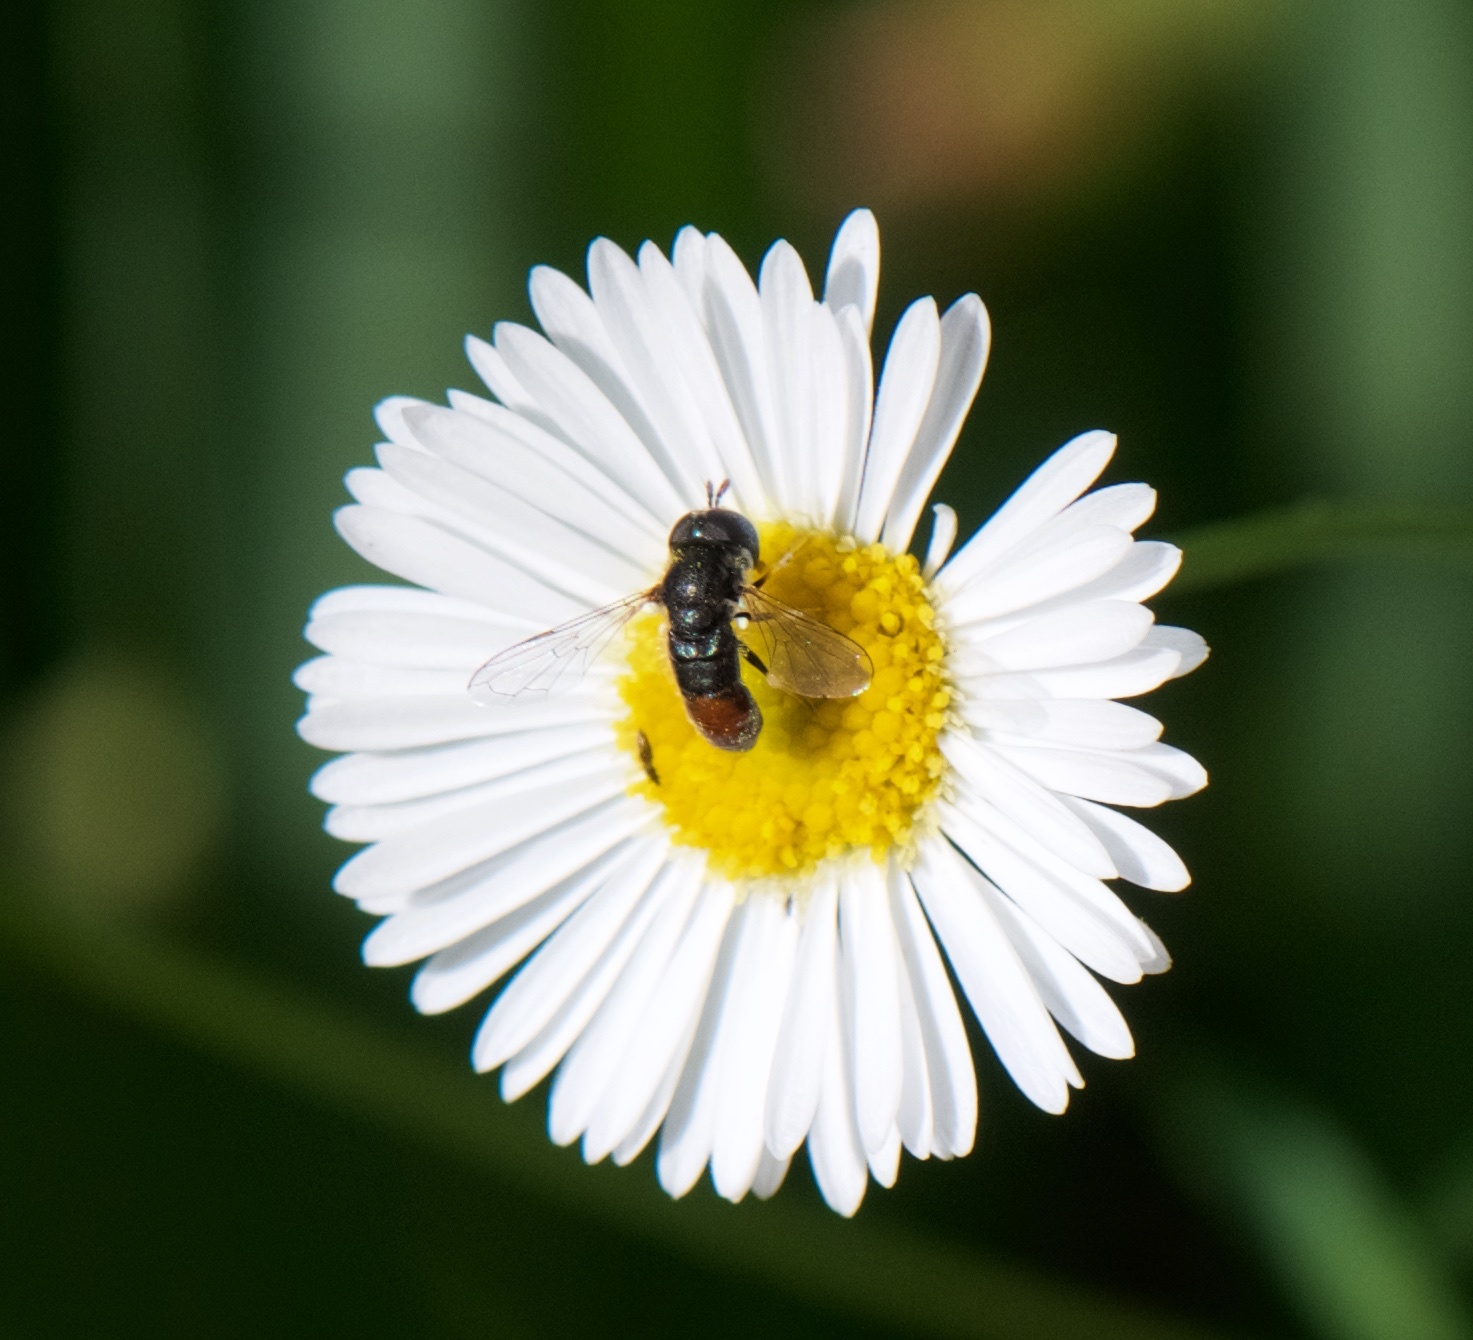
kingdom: Animalia
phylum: Arthropoda
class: Insecta
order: Diptera
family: Syrphidae
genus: Paragus
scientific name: Paragus haemorrhous
